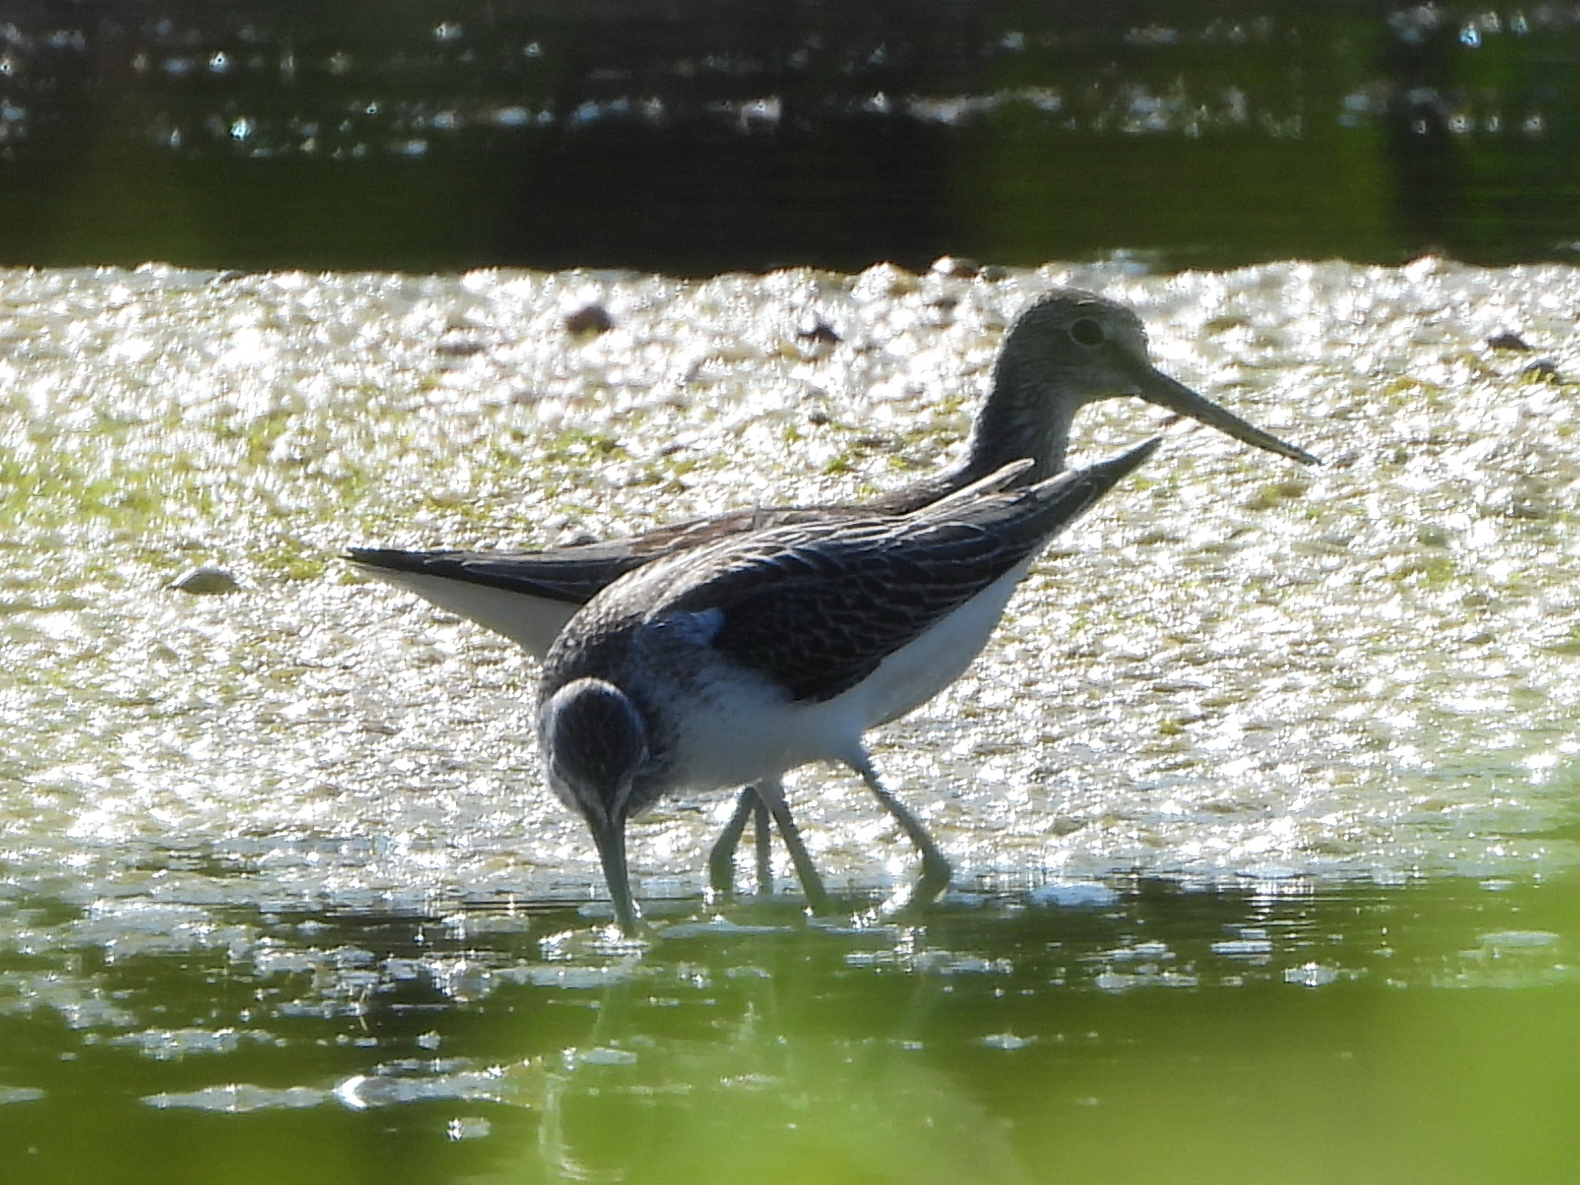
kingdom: Animalia
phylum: Chordata
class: Aves
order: Charadriiformes
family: Scolopacidae
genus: Tringa
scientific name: Tringa nebularia
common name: Common greenshank
